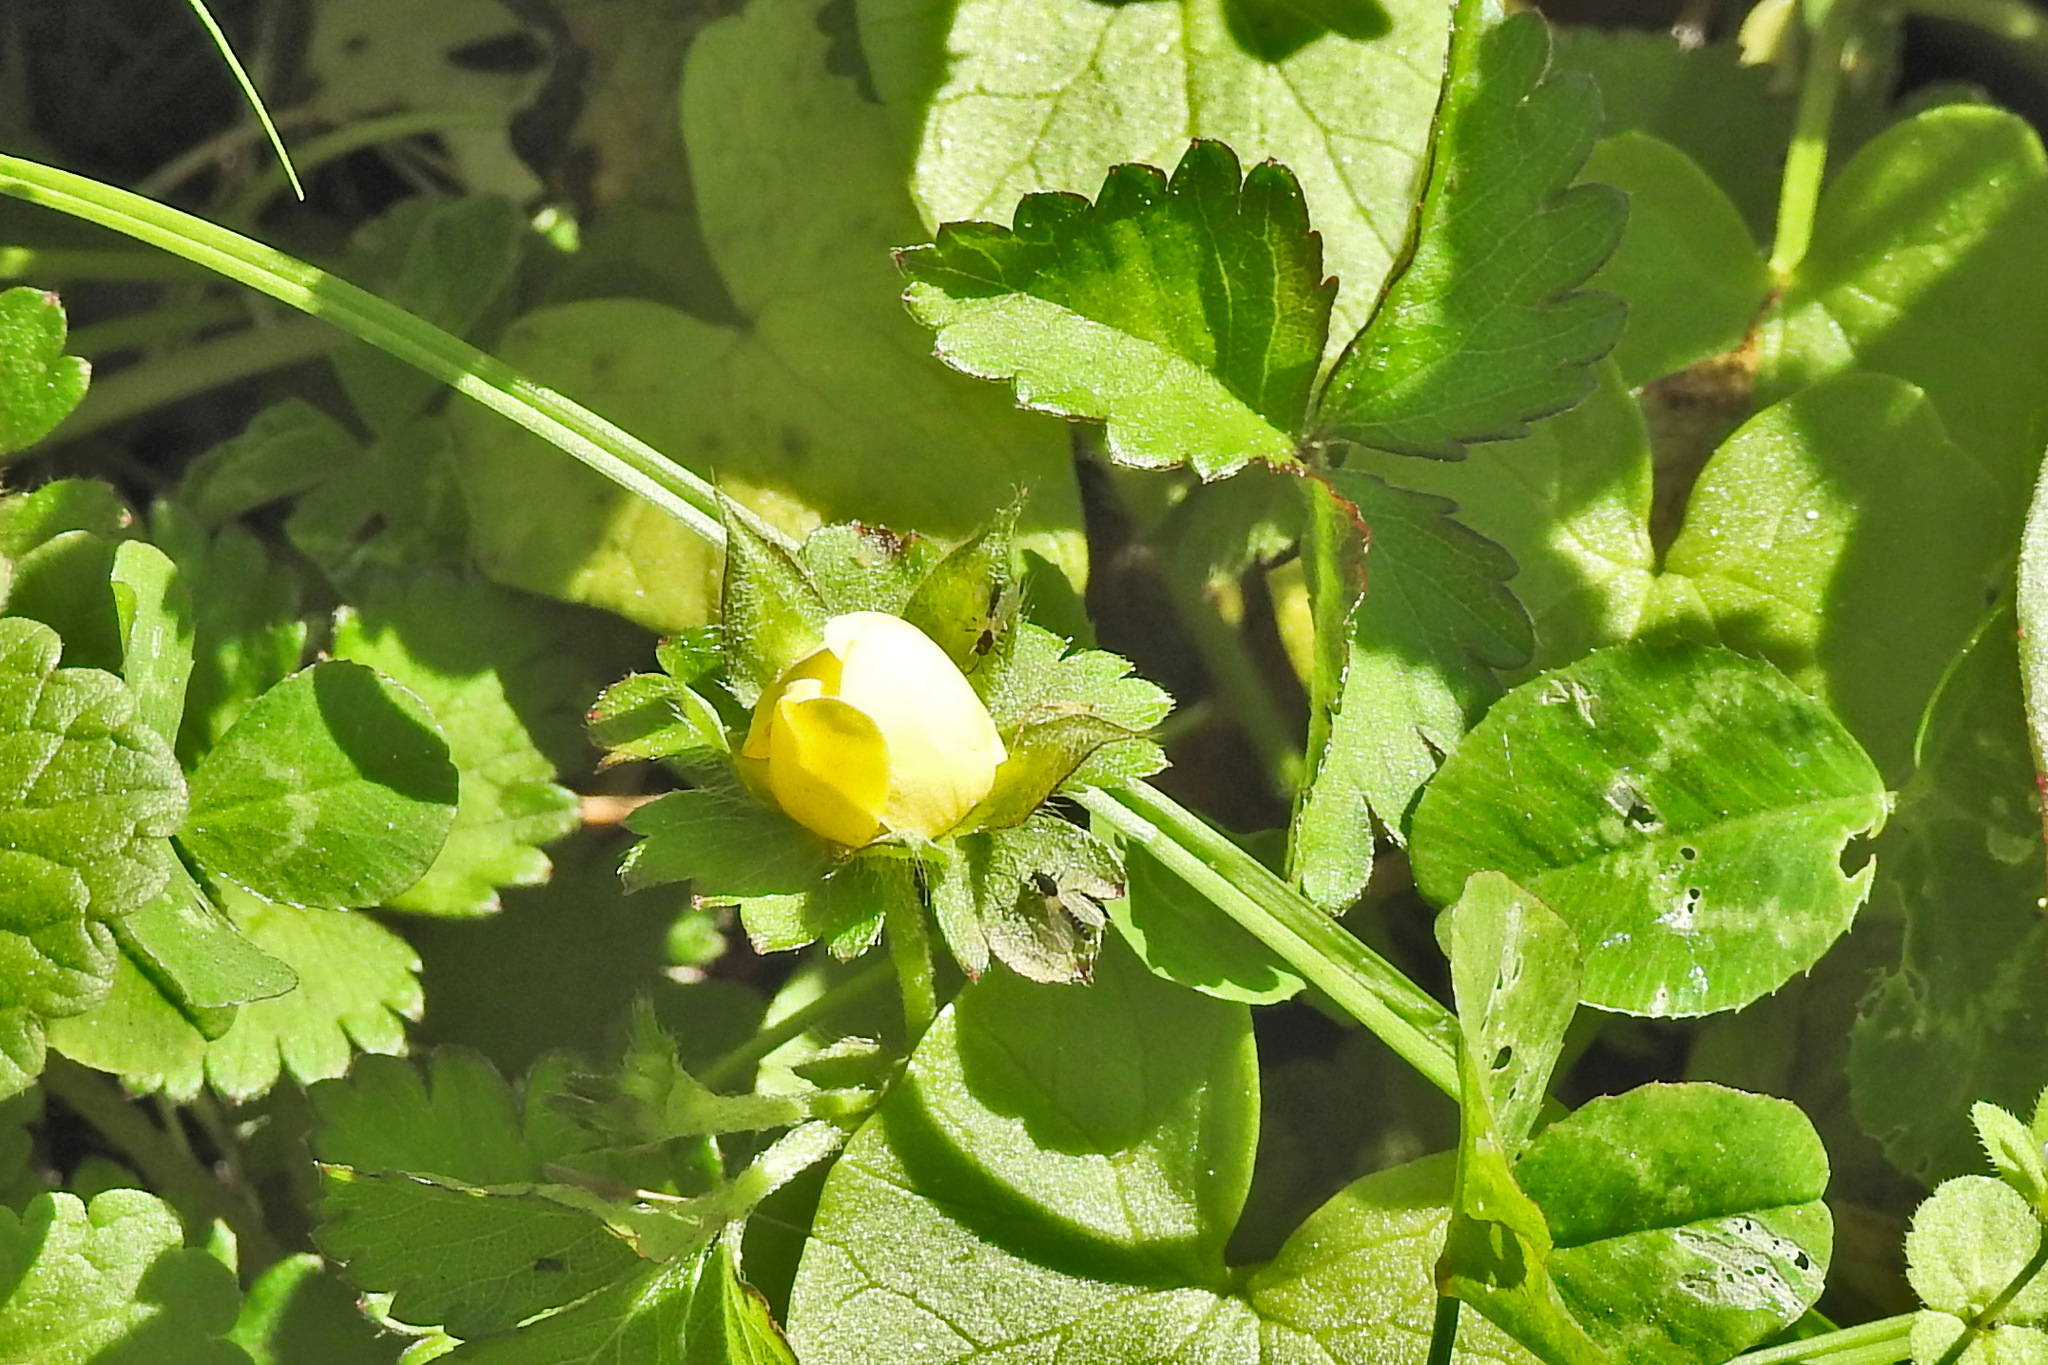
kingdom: Plantae
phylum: Tracheophyta
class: Magnoliopsida
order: Rosales
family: Rosaceae
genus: Potentilla
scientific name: Potentilla indica
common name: Yellow-flowered strawberry
